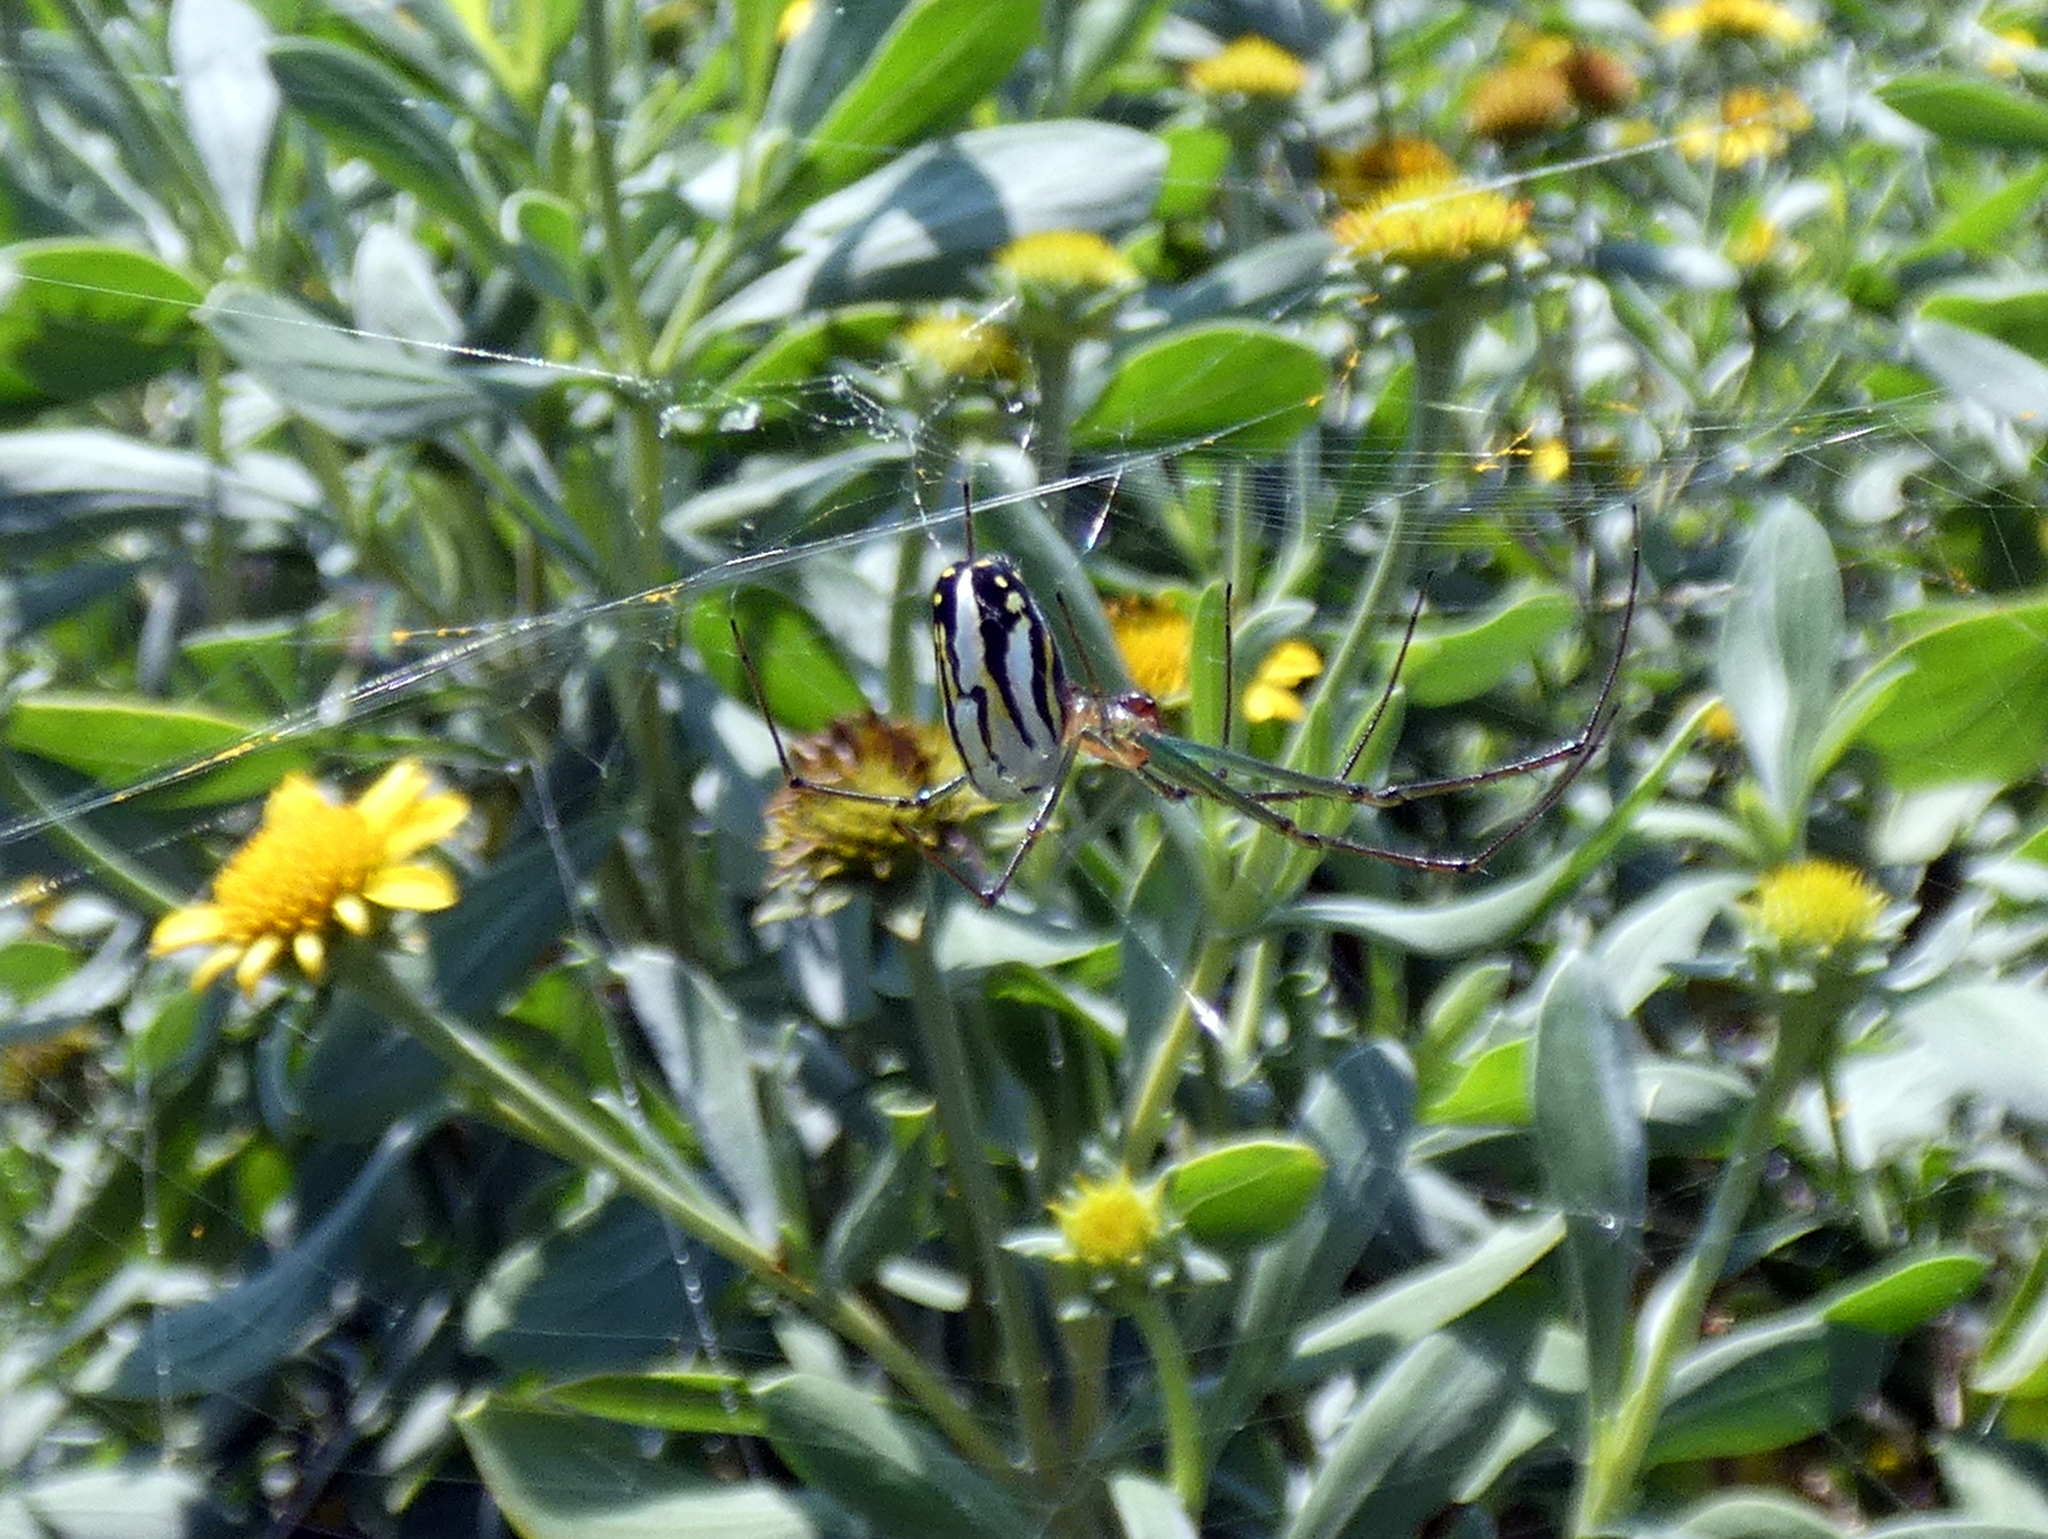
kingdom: Animalia
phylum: Arthropoda
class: Arachnida
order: Araneae
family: Tetragnathidae
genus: Leucauge
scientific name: Leucauge argyra
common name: Longjawed orb weavers
